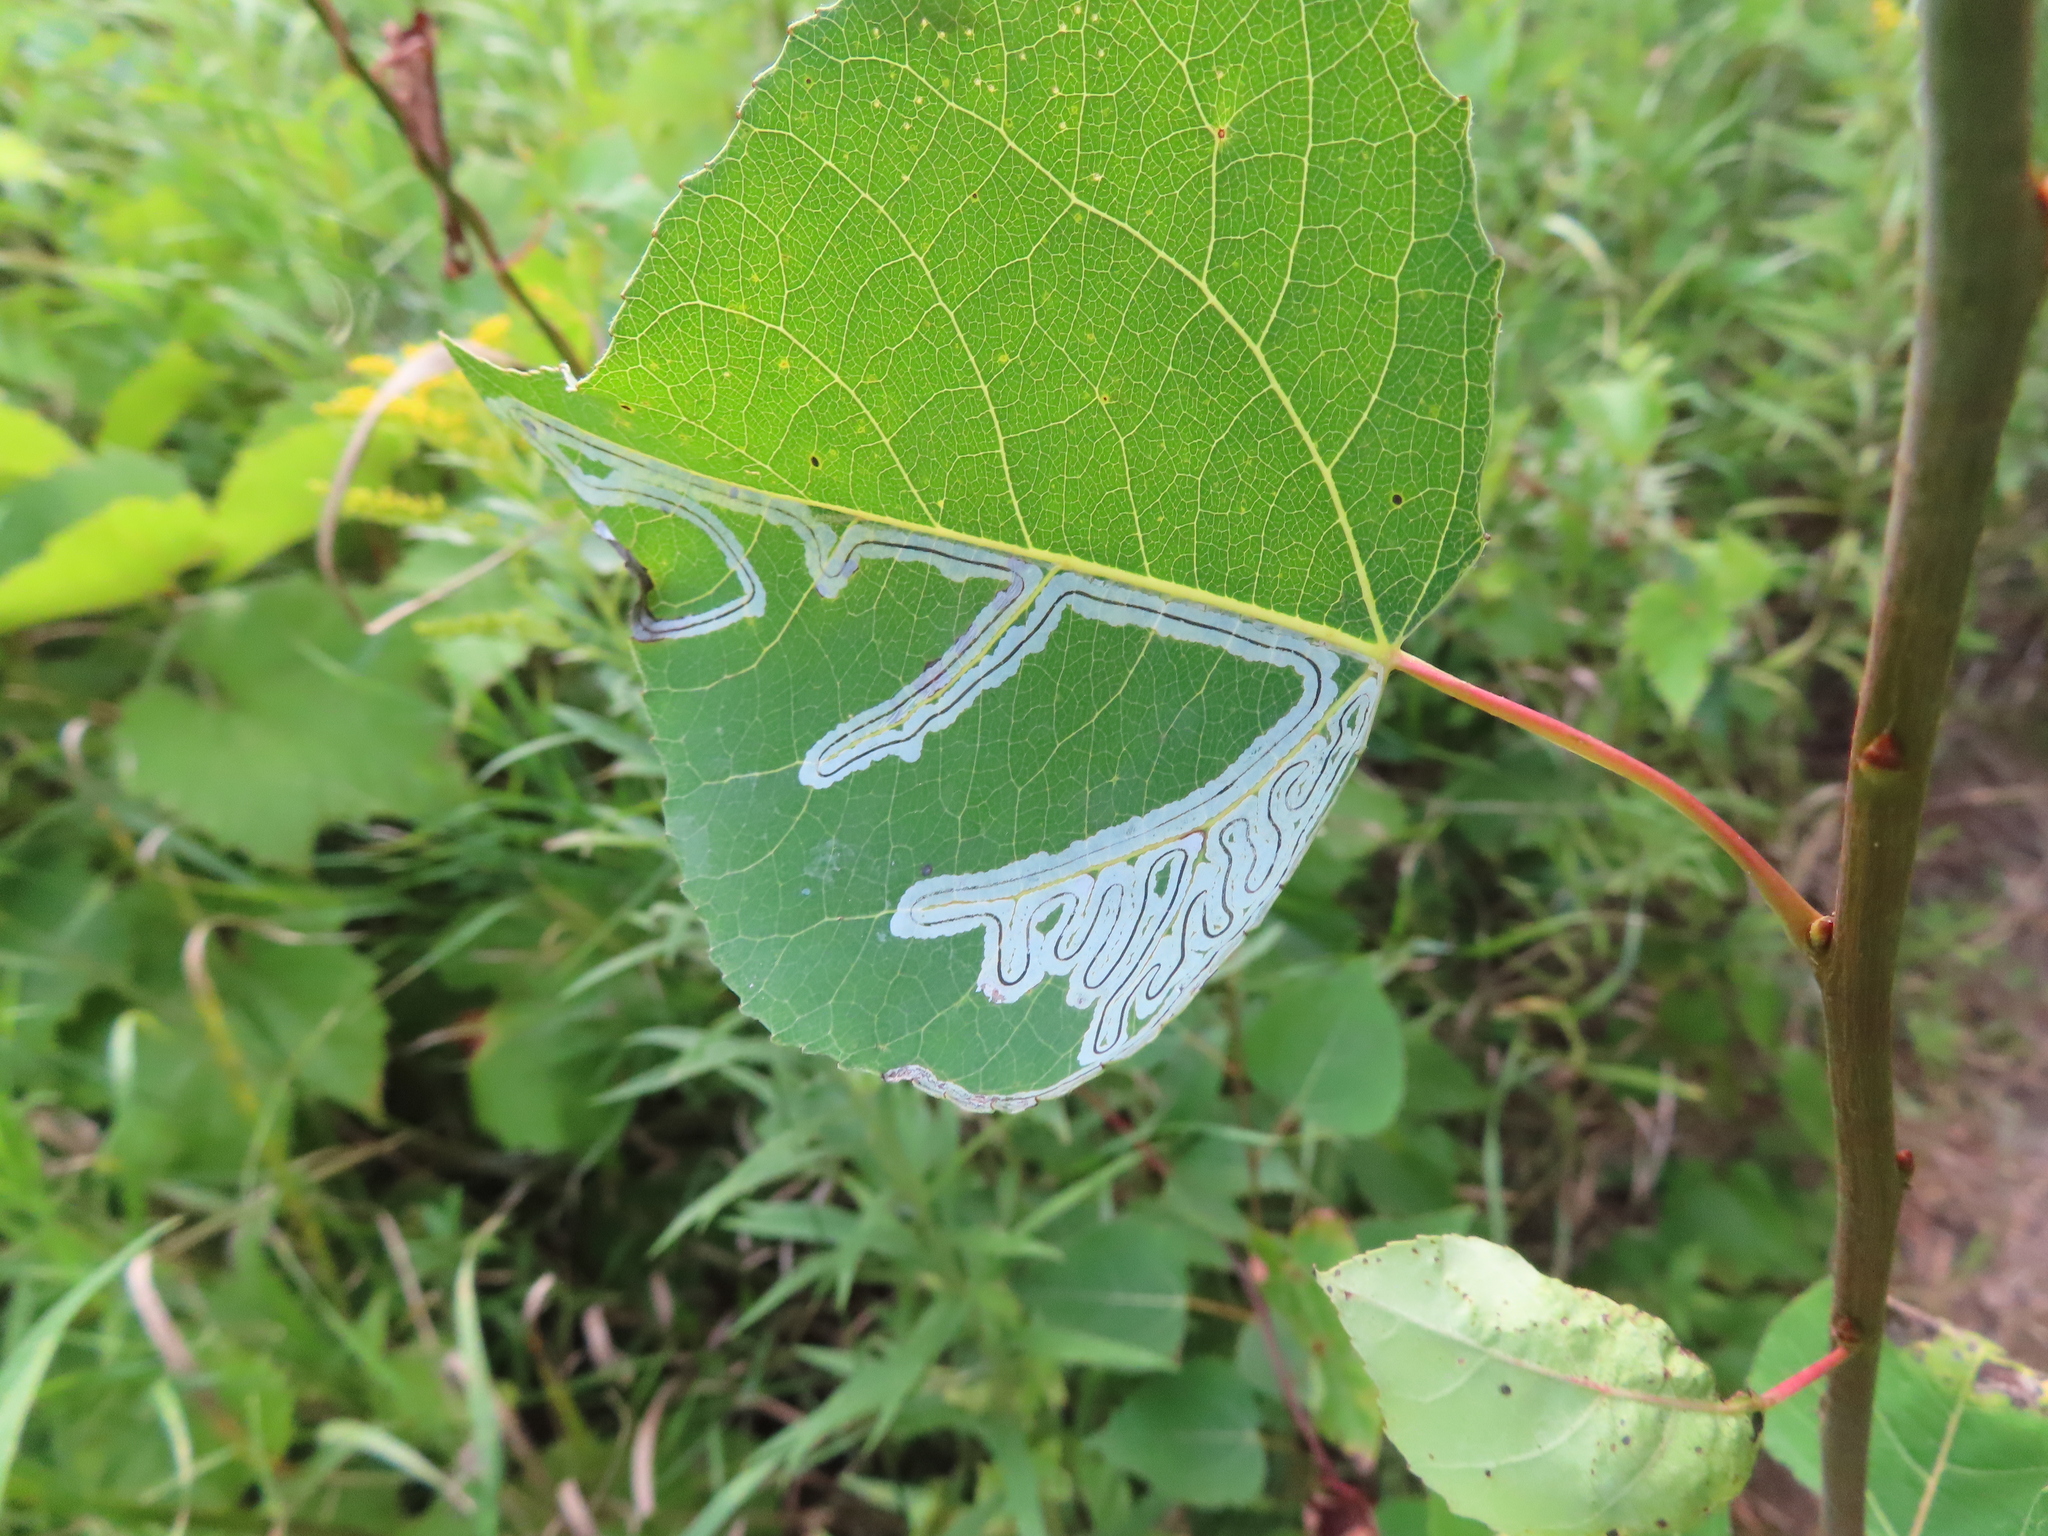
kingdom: Animalia
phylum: Arthropoda
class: Insecta
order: Lepidoptera
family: Gracillariidae
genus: Phyllocnistis
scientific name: Phyllocnistis populiella
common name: Aspen serpentine leafminer moth
